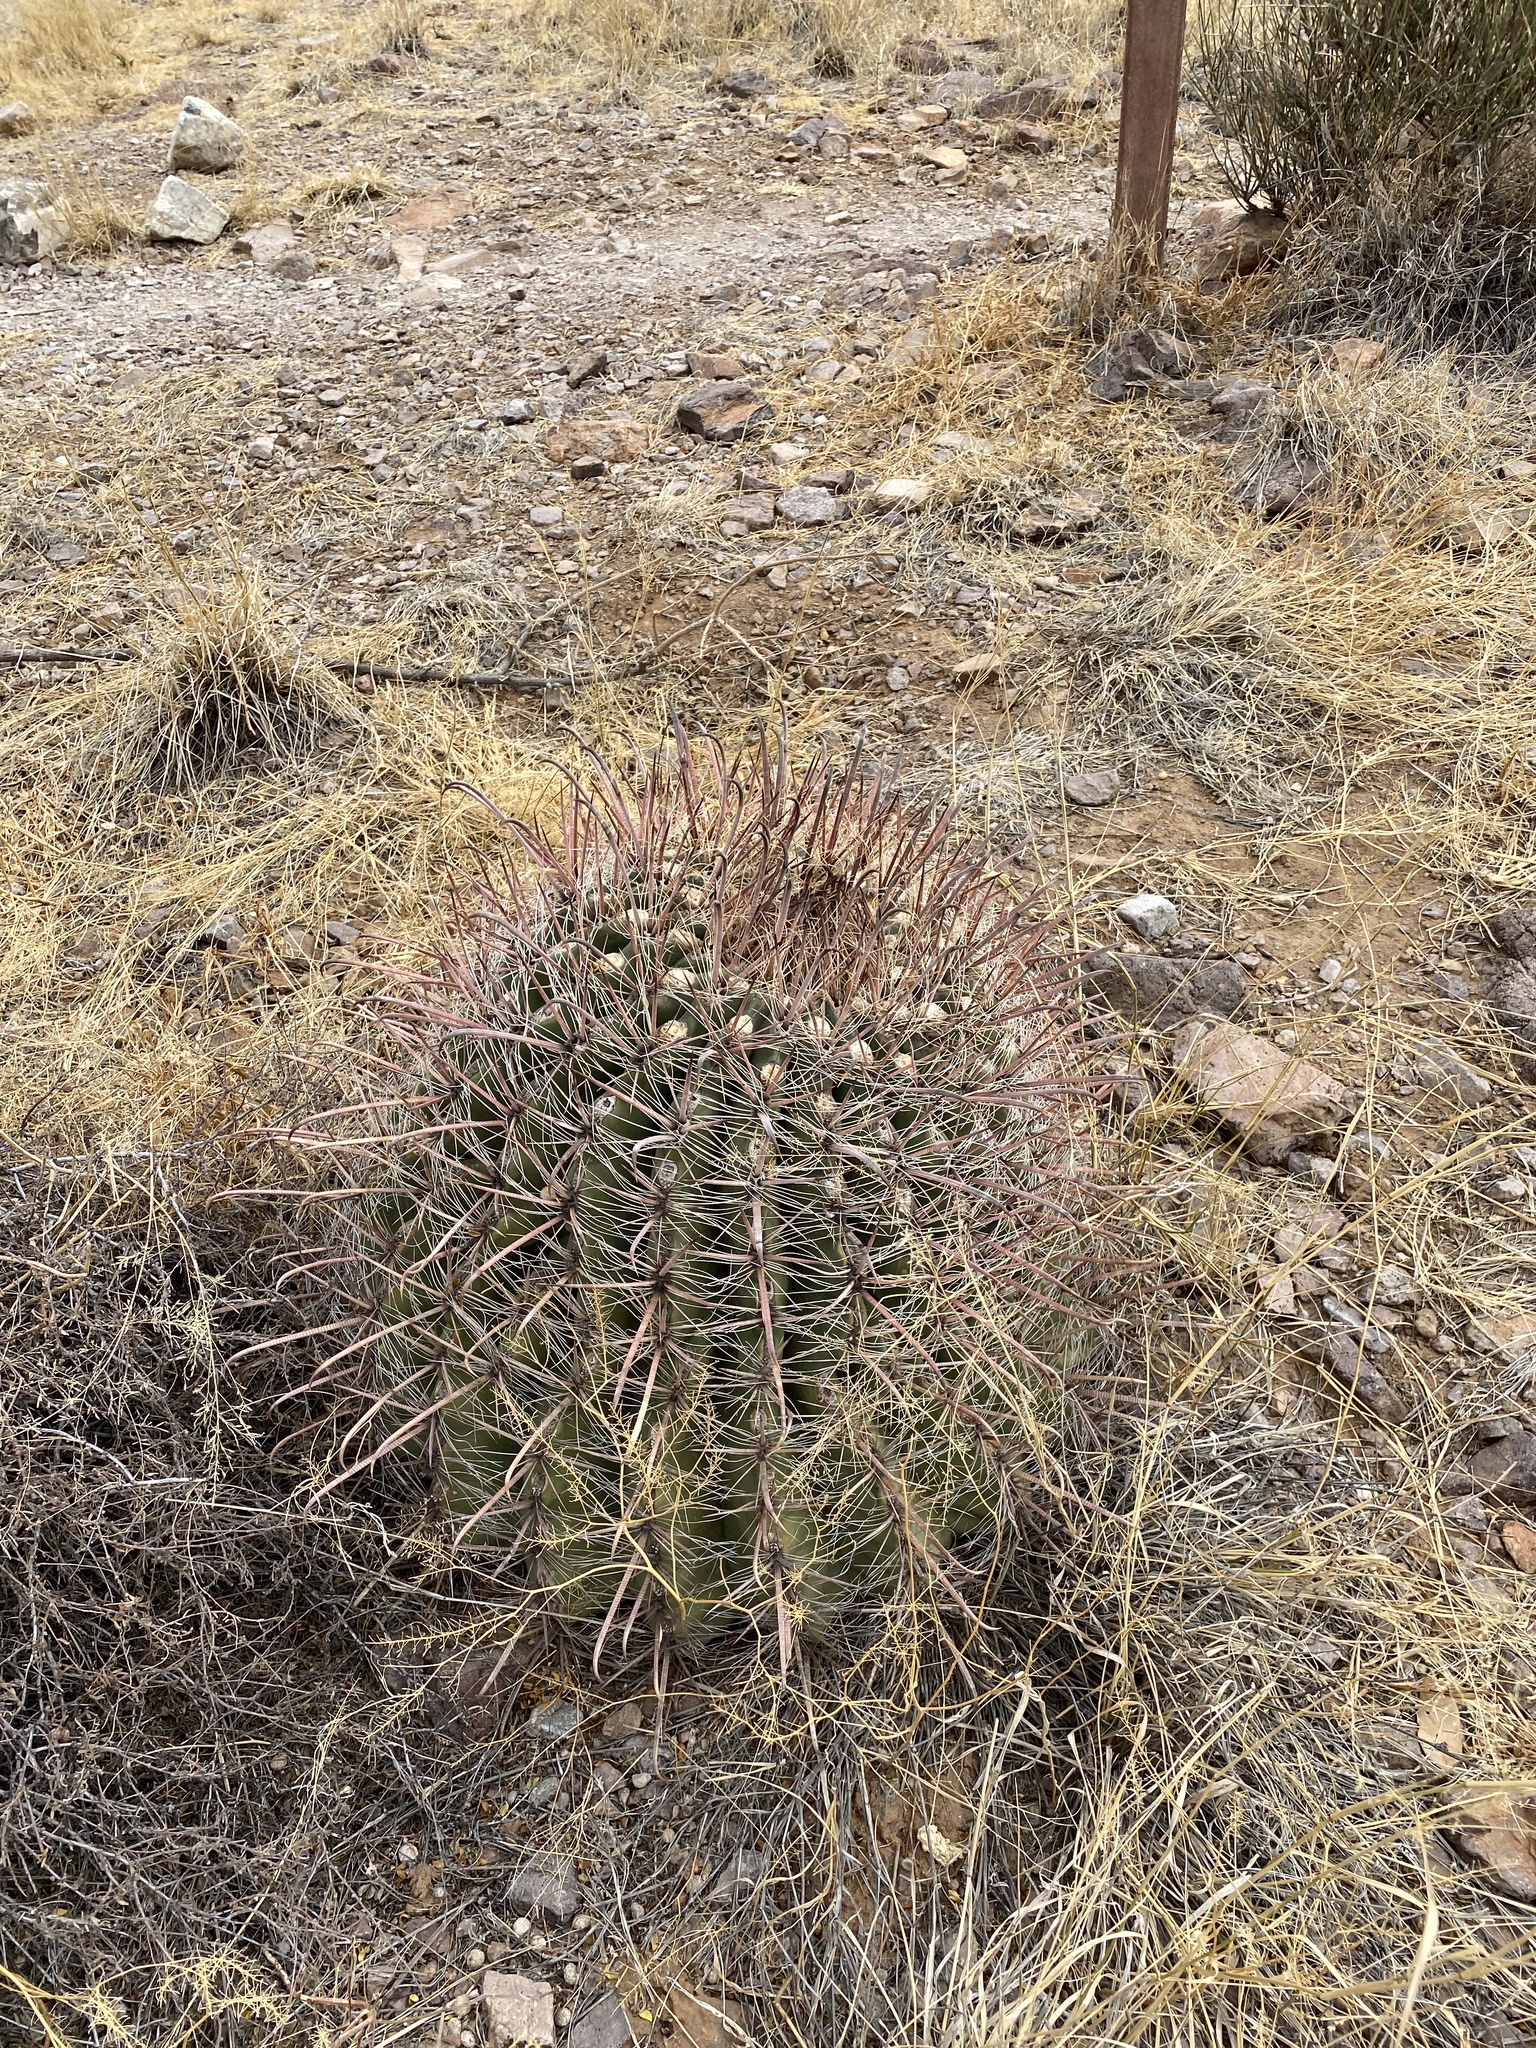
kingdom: Plantae
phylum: Tracheophyta
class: Magnoliopsida
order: Caryophyllales
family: Cactaceae
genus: Ferocactus
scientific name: Ferocactus wislizeni
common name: Candy barrel cactus
